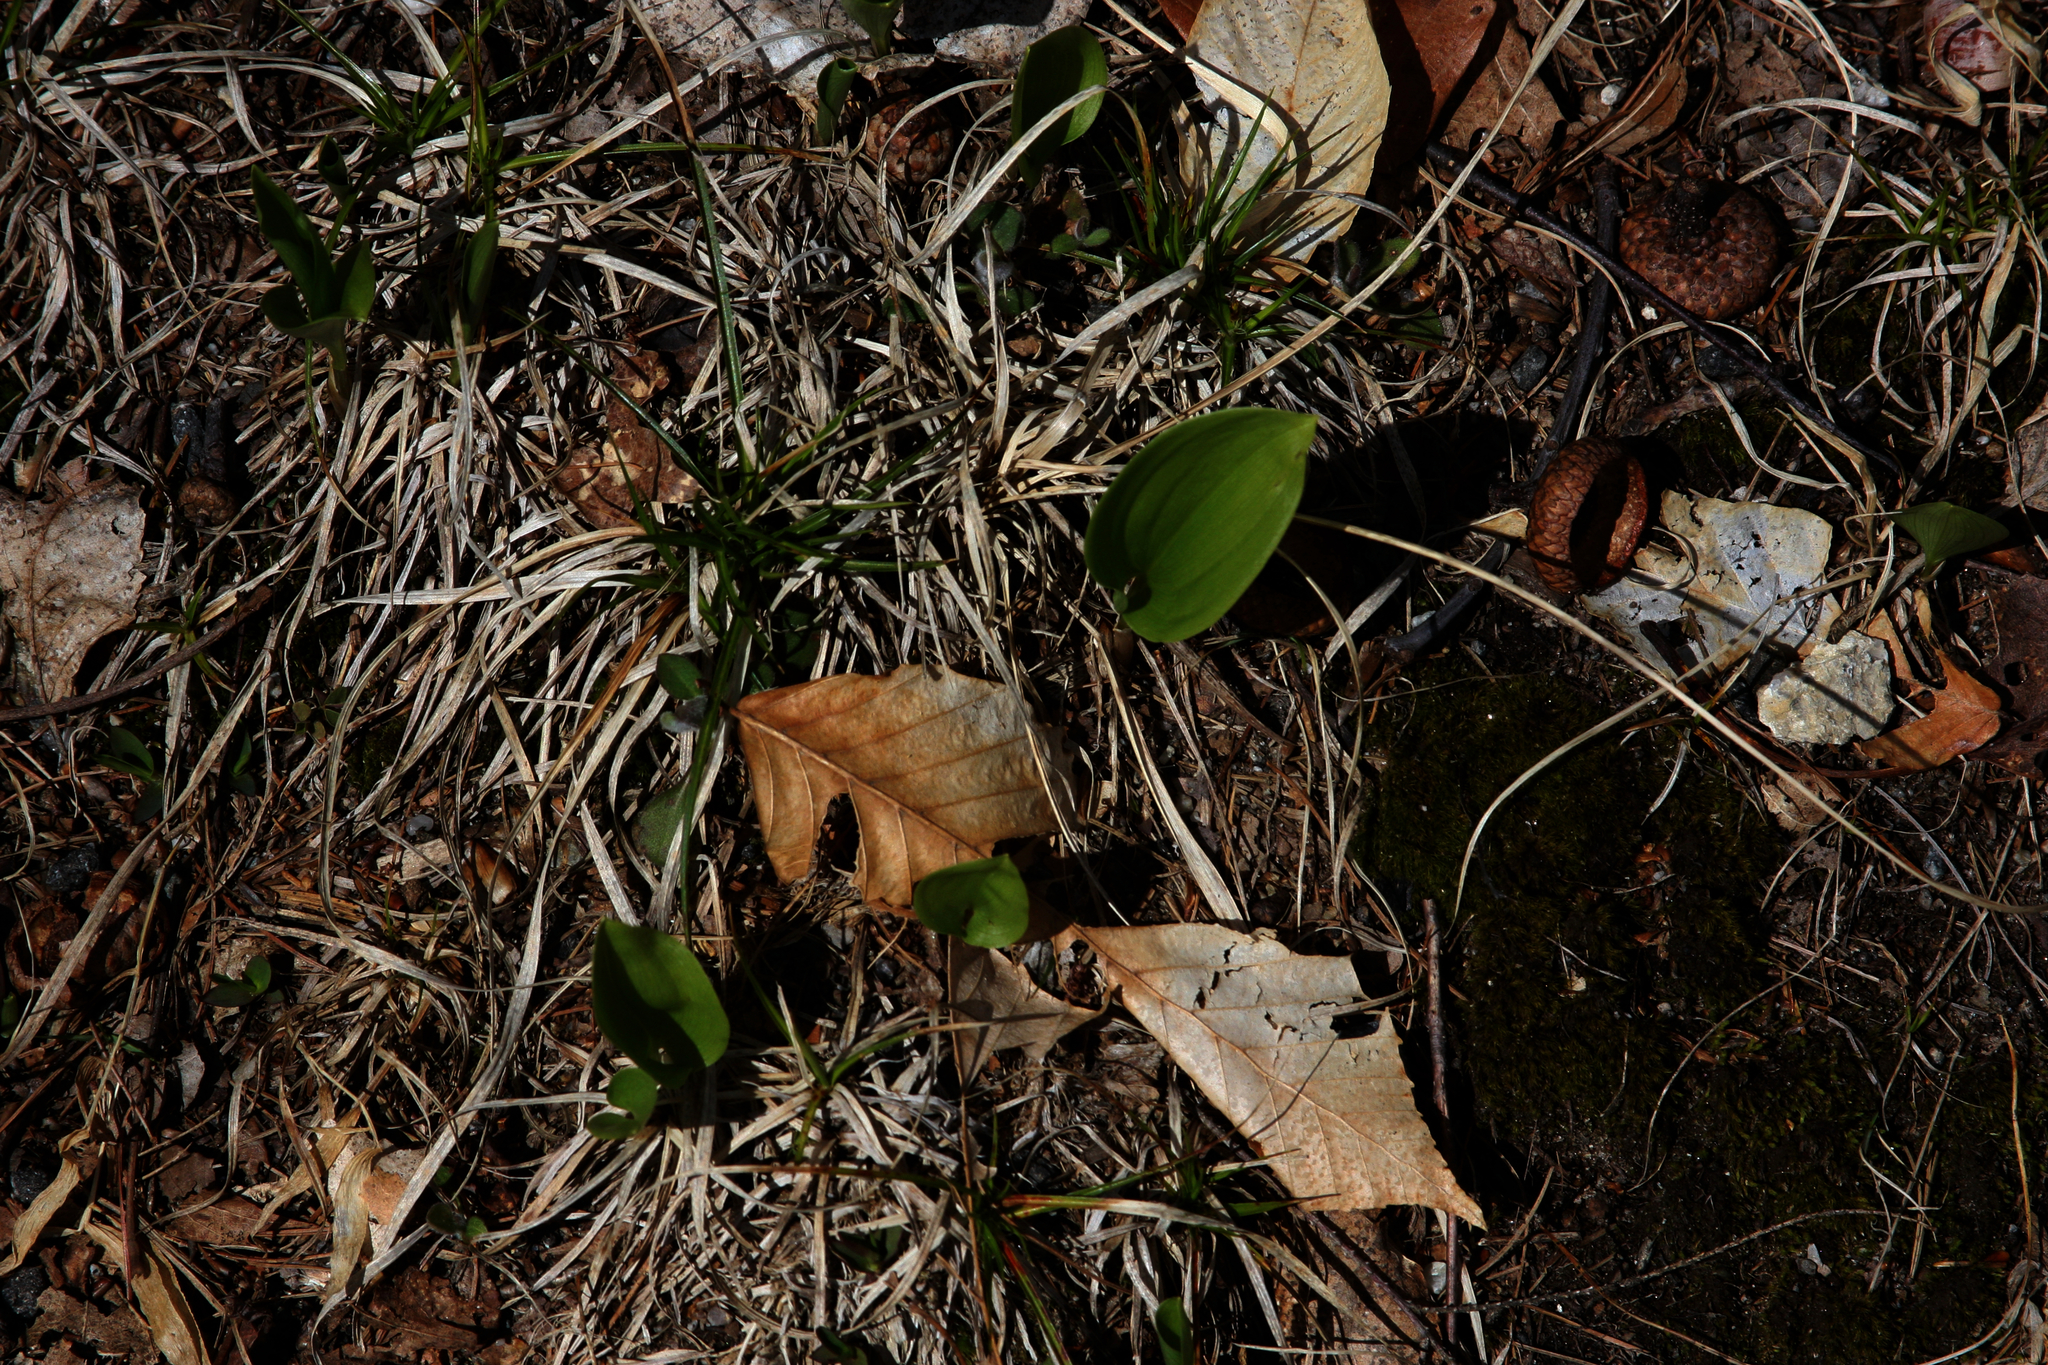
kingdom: Plantae
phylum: Tracheophyta
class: Liliopsida
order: Asparagales
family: Asparagaceae
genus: Maianthemum
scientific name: Maianthemum canadense
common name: False lily-of-the-valley
